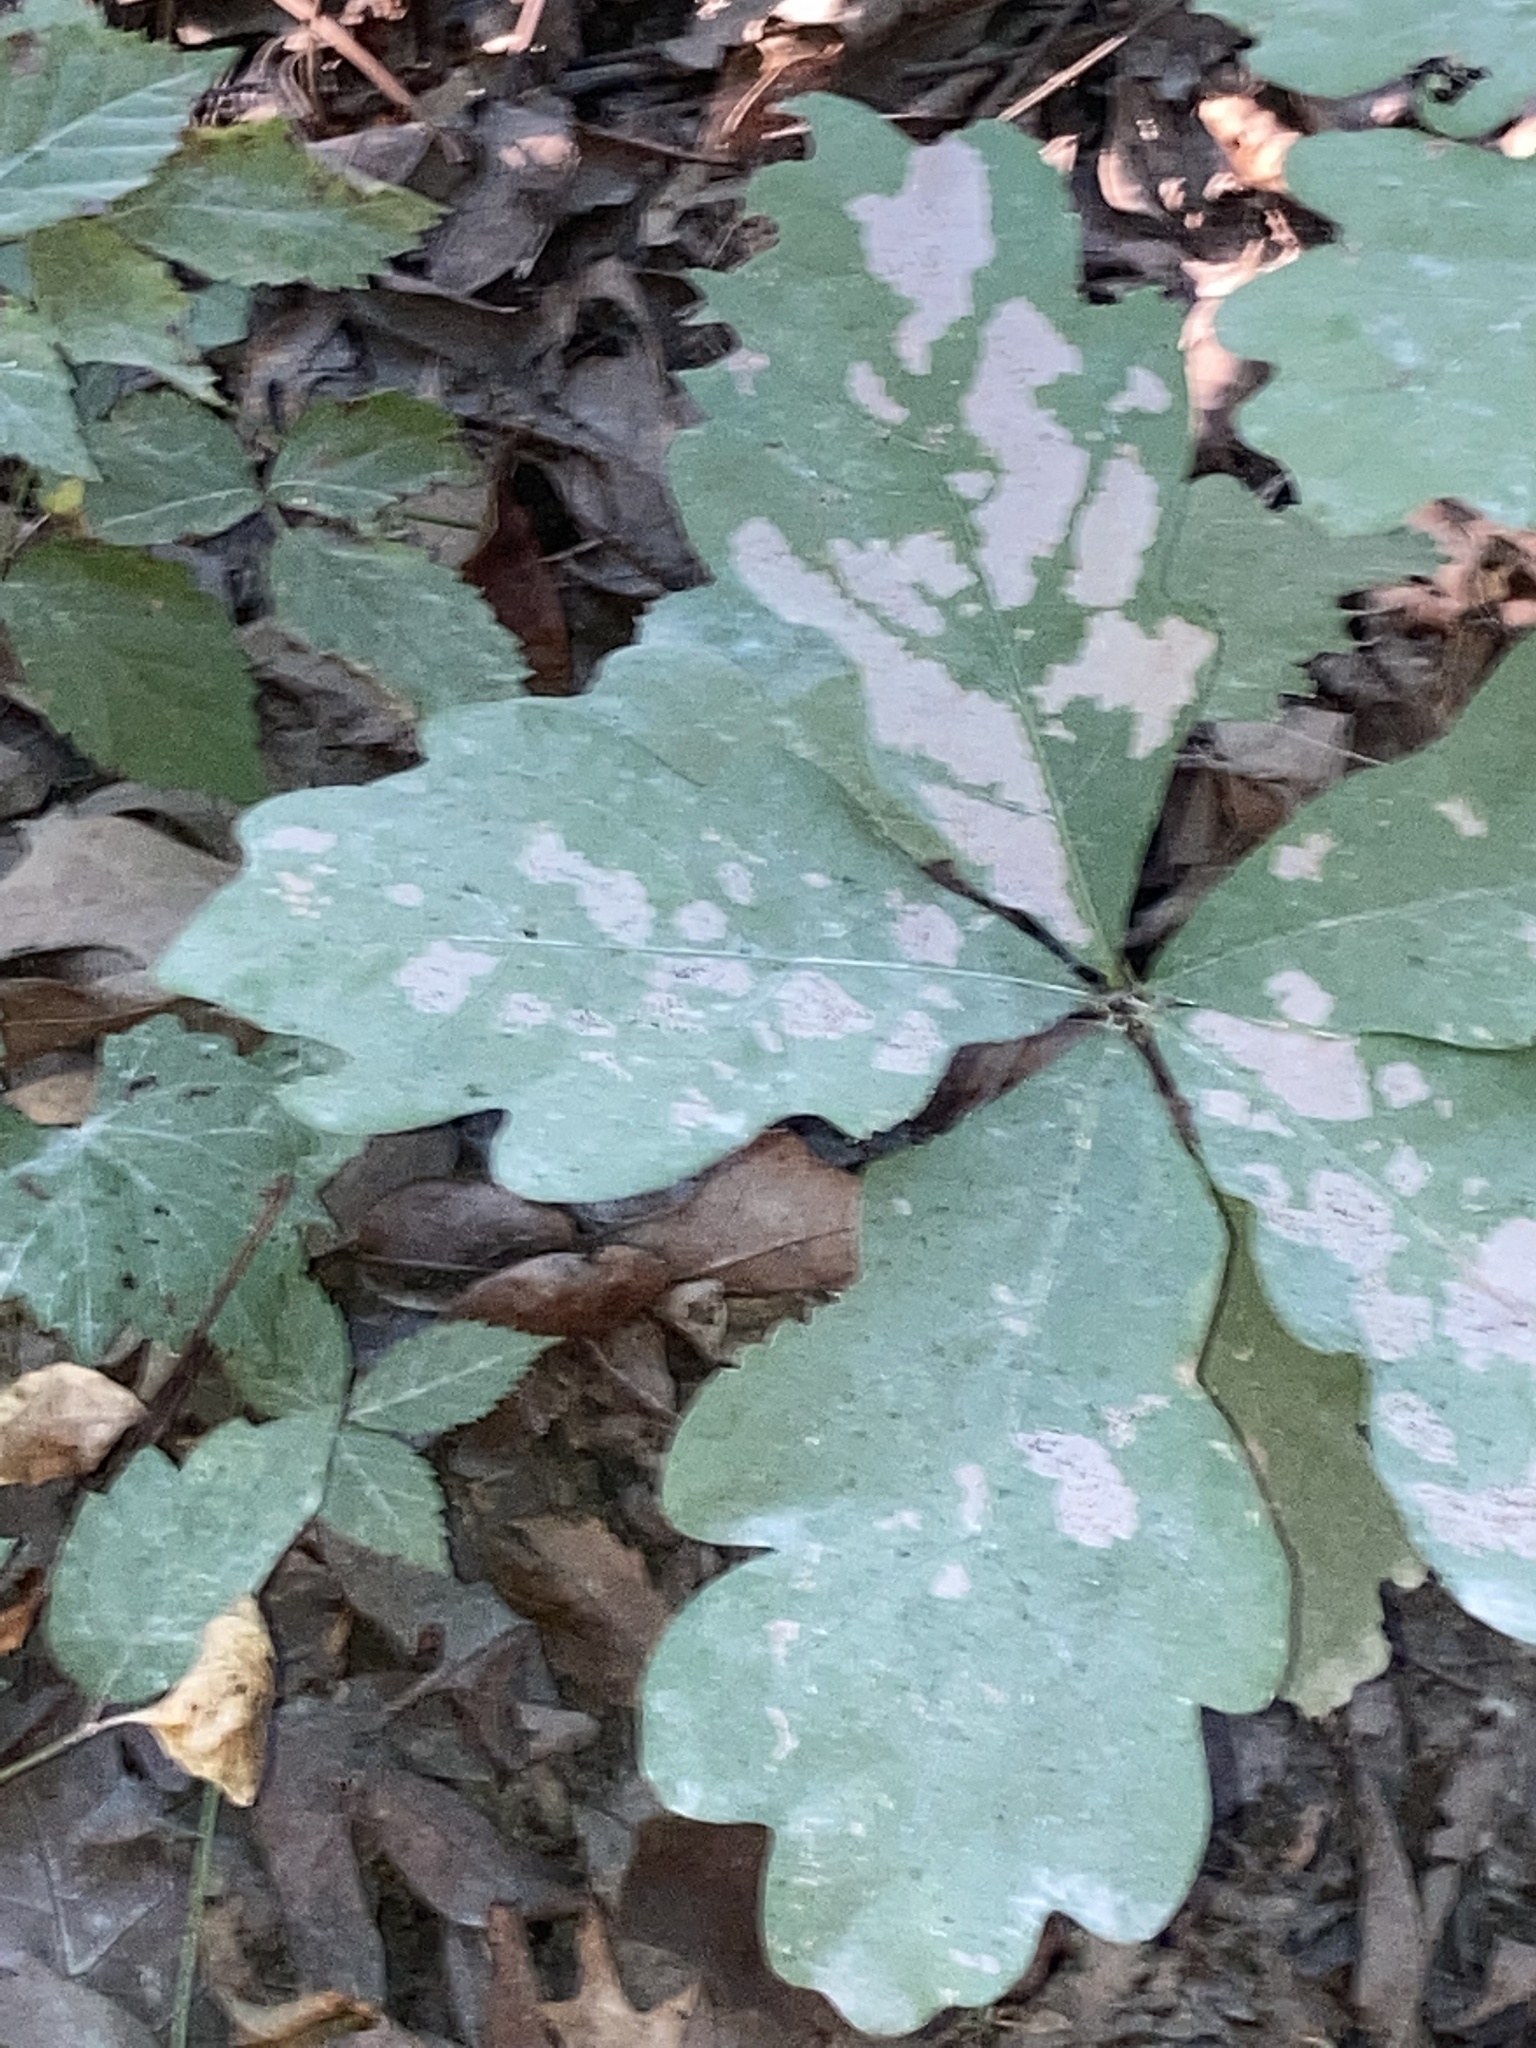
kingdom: Plantae
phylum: Tracheophyta
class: Magnoliopsida
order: Fagales
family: Fagaceae
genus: Quercus
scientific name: Quercus alba
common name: White oak
